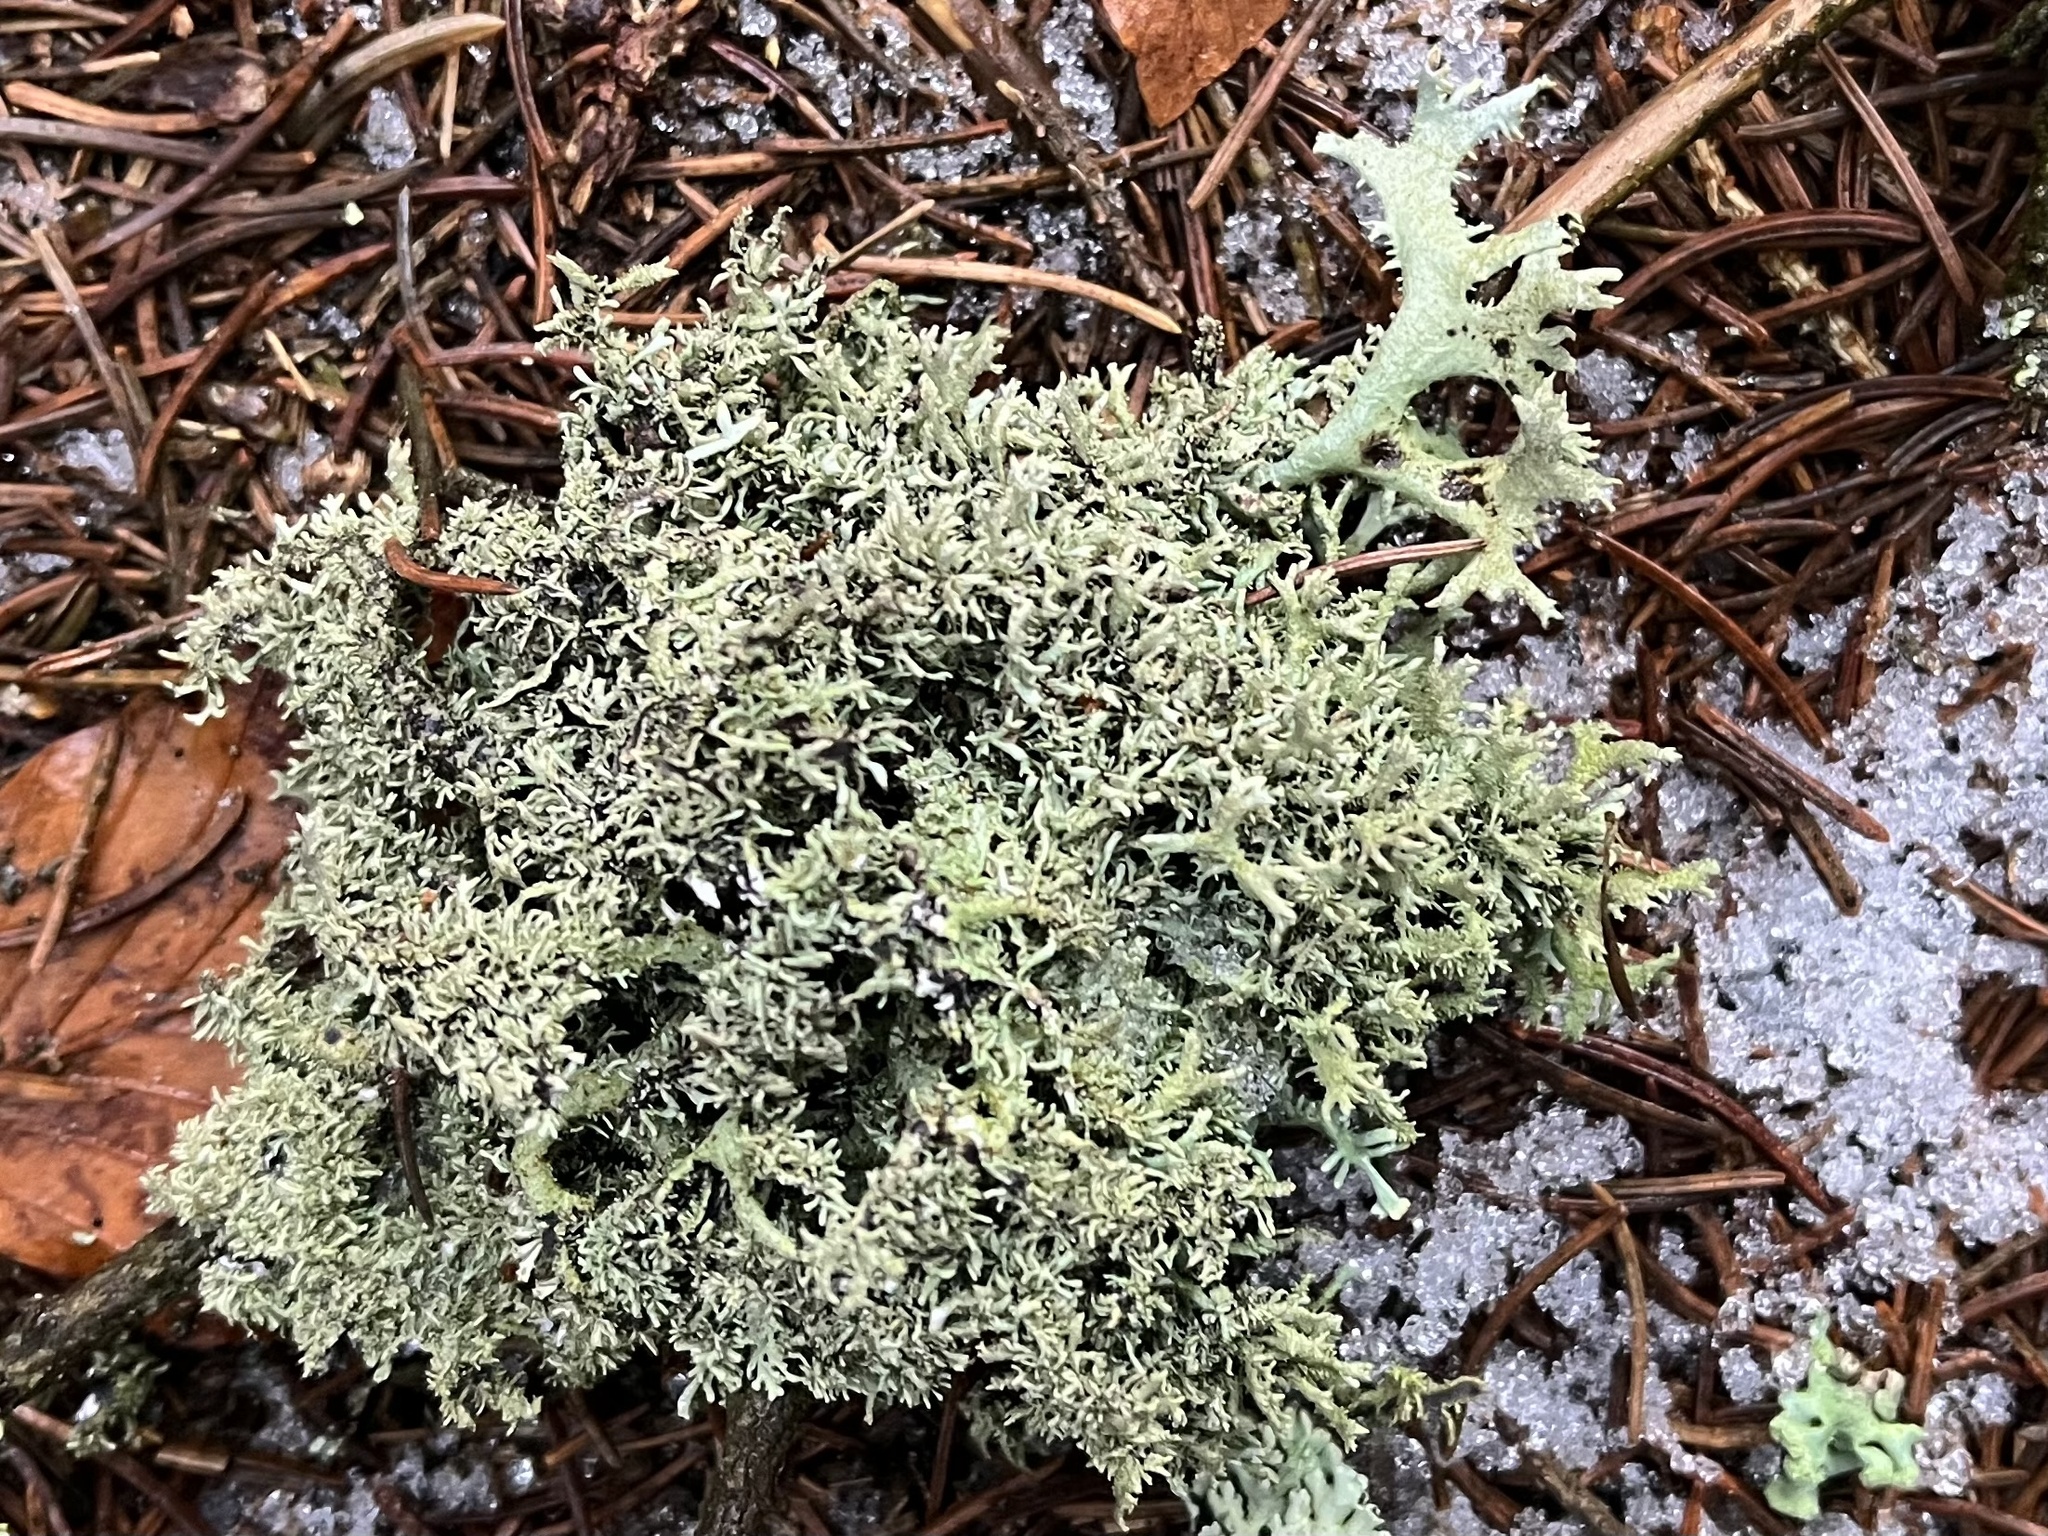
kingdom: Fungi
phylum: Ascomycota
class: Lecanoromycetes
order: Lecanorales
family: Parmeliaceae
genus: Pseudevernia
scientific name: Pseudevernia furfuracea
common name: Tree moss
